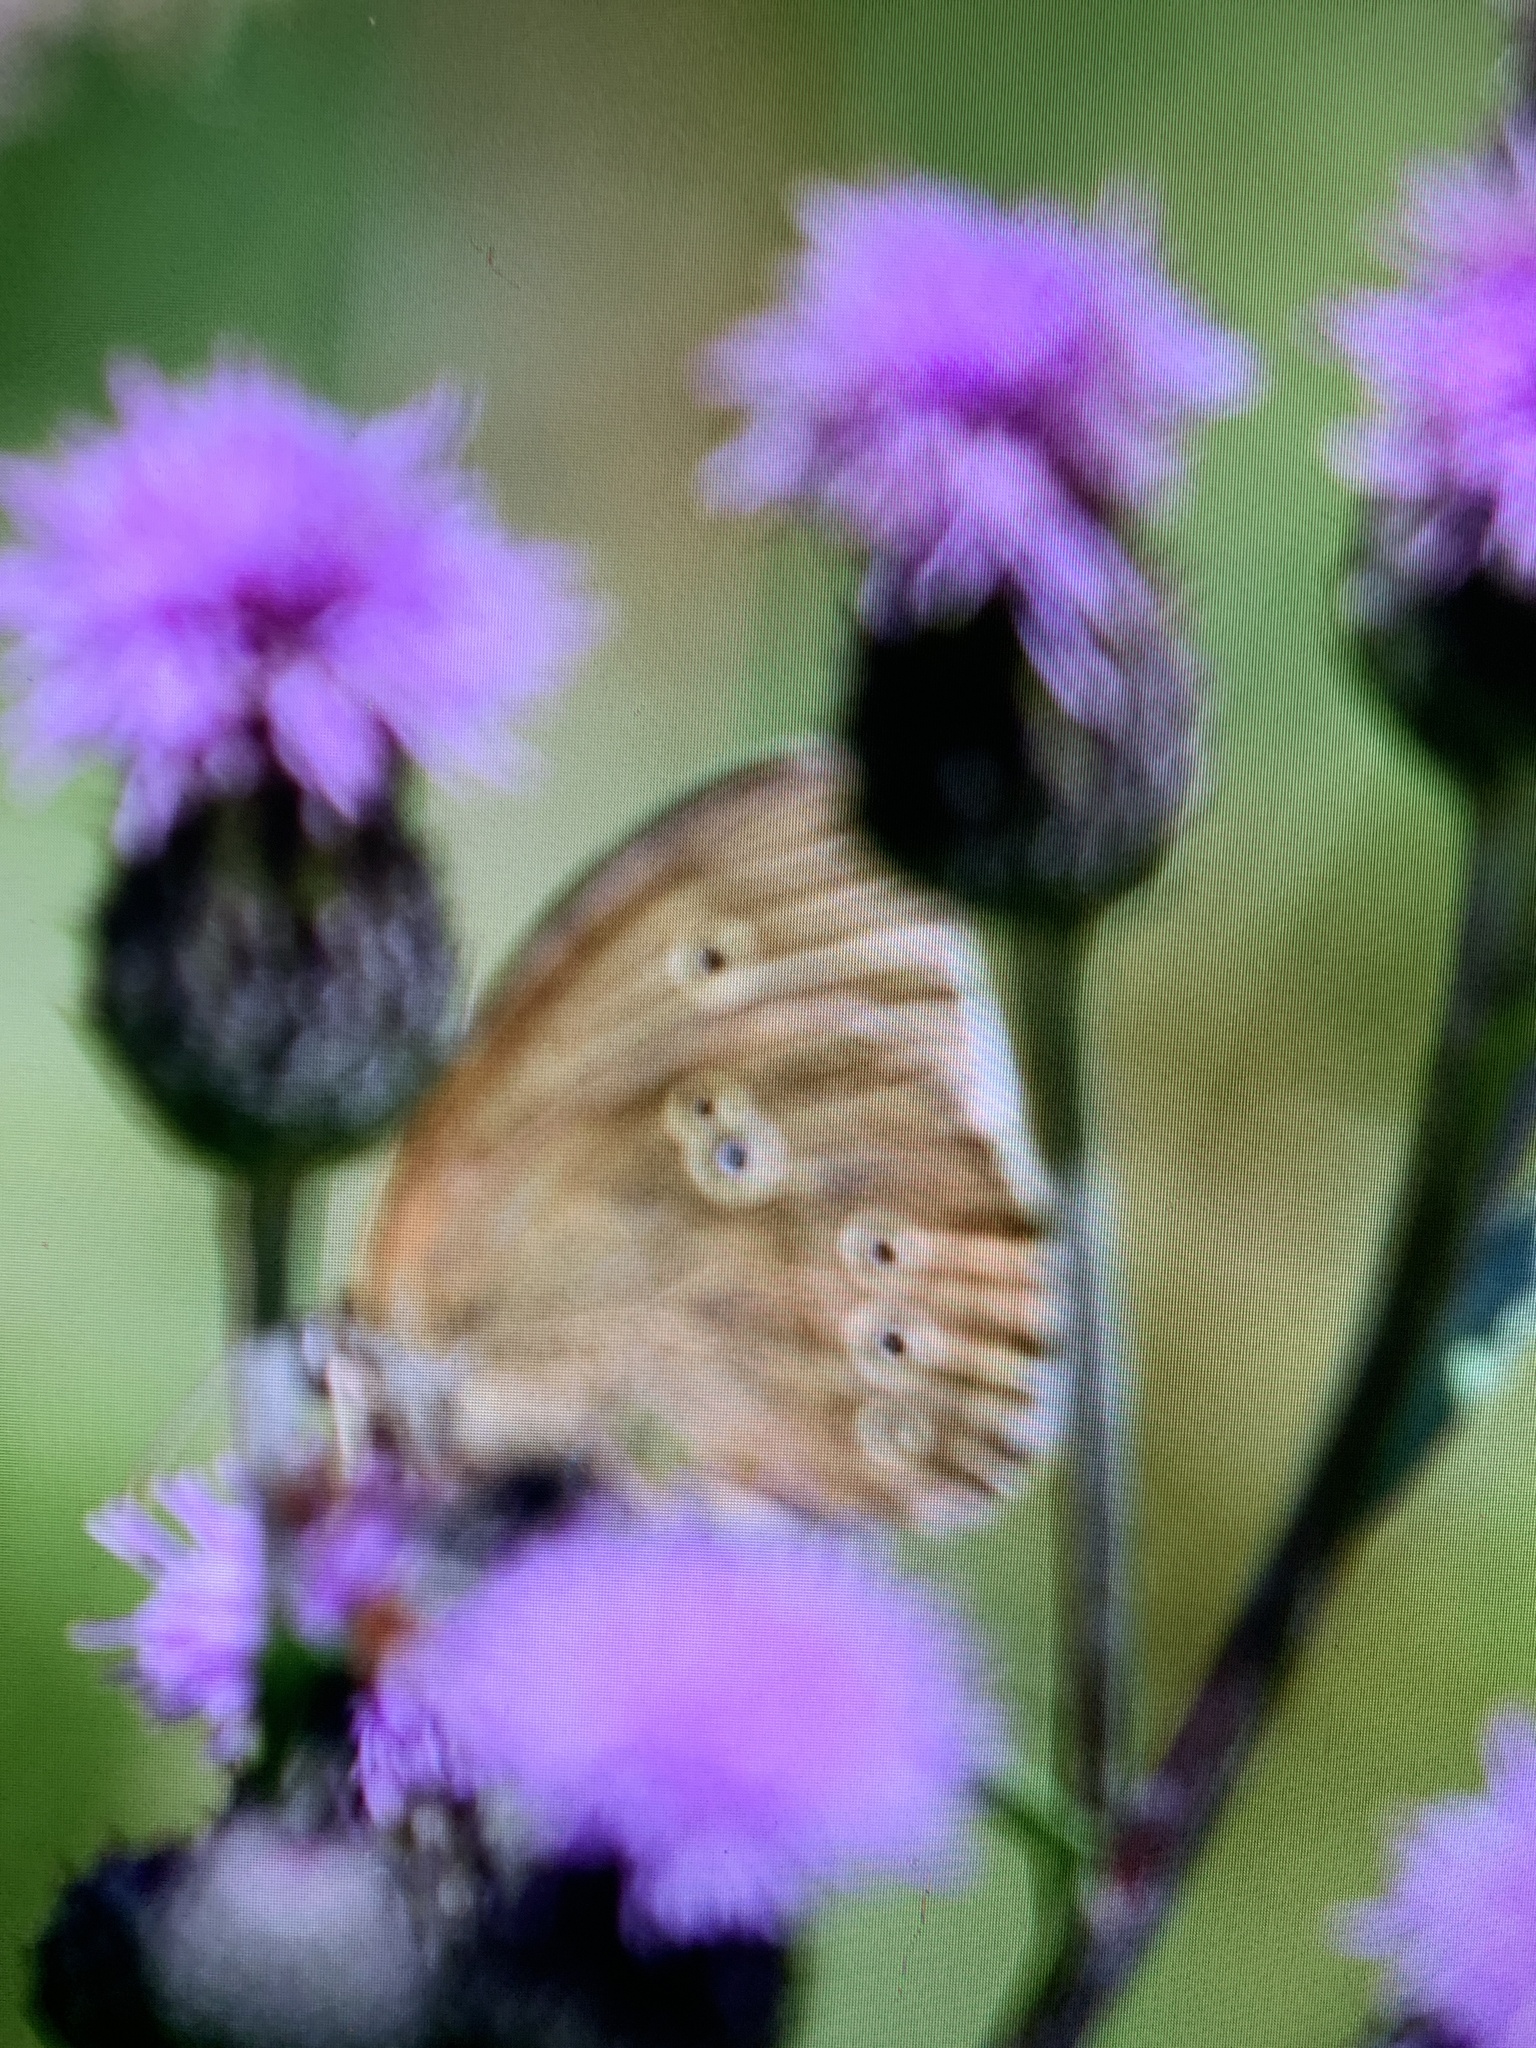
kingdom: Animalia
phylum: Arthropoda
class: Insecta
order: Lepidoptera
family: Nymphalidae
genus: Aphantopus
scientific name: Aphantopus hyperantus
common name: Ringlet
